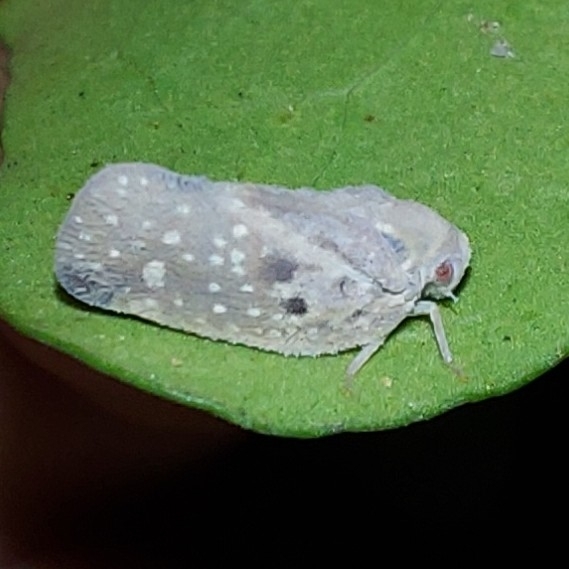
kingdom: Animalia
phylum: Arthropoda
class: Insecta
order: Hemiptera
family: Flatidae
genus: Metcalfa
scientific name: Metcalfa pruinosa
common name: Citrus flatid planthopper
